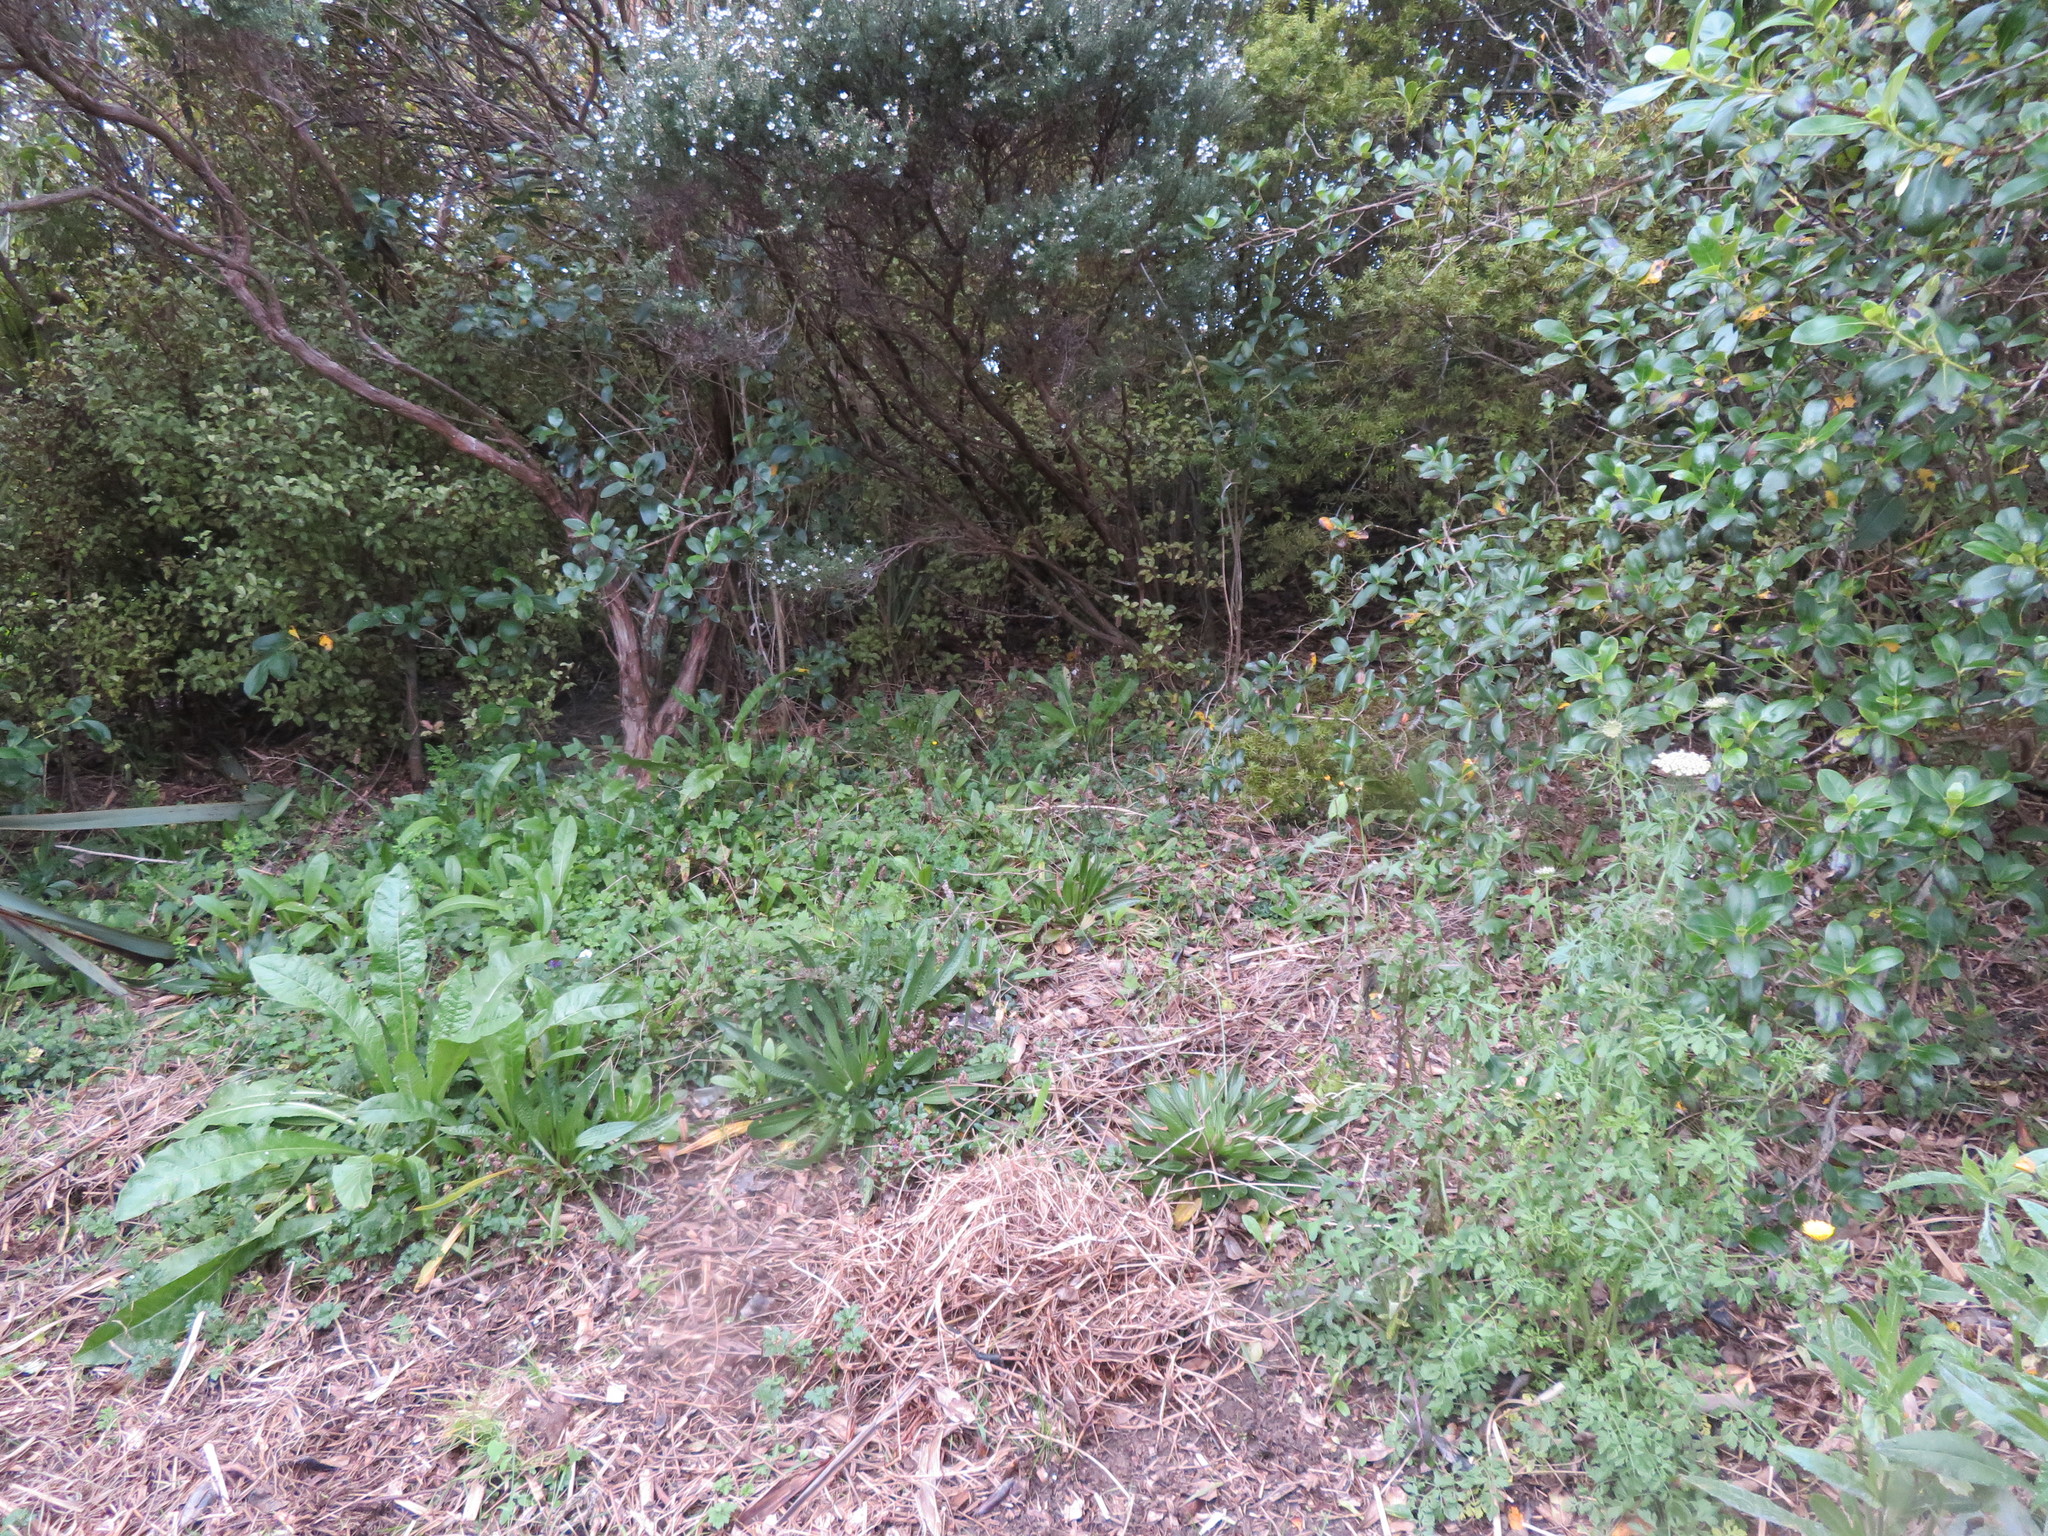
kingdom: Plantae
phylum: Tracheophyta
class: Magnoliopsida
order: Lamiales
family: Plantaginaceae
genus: Plantago
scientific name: Plantago lanceolata
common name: Ribwort plantain
